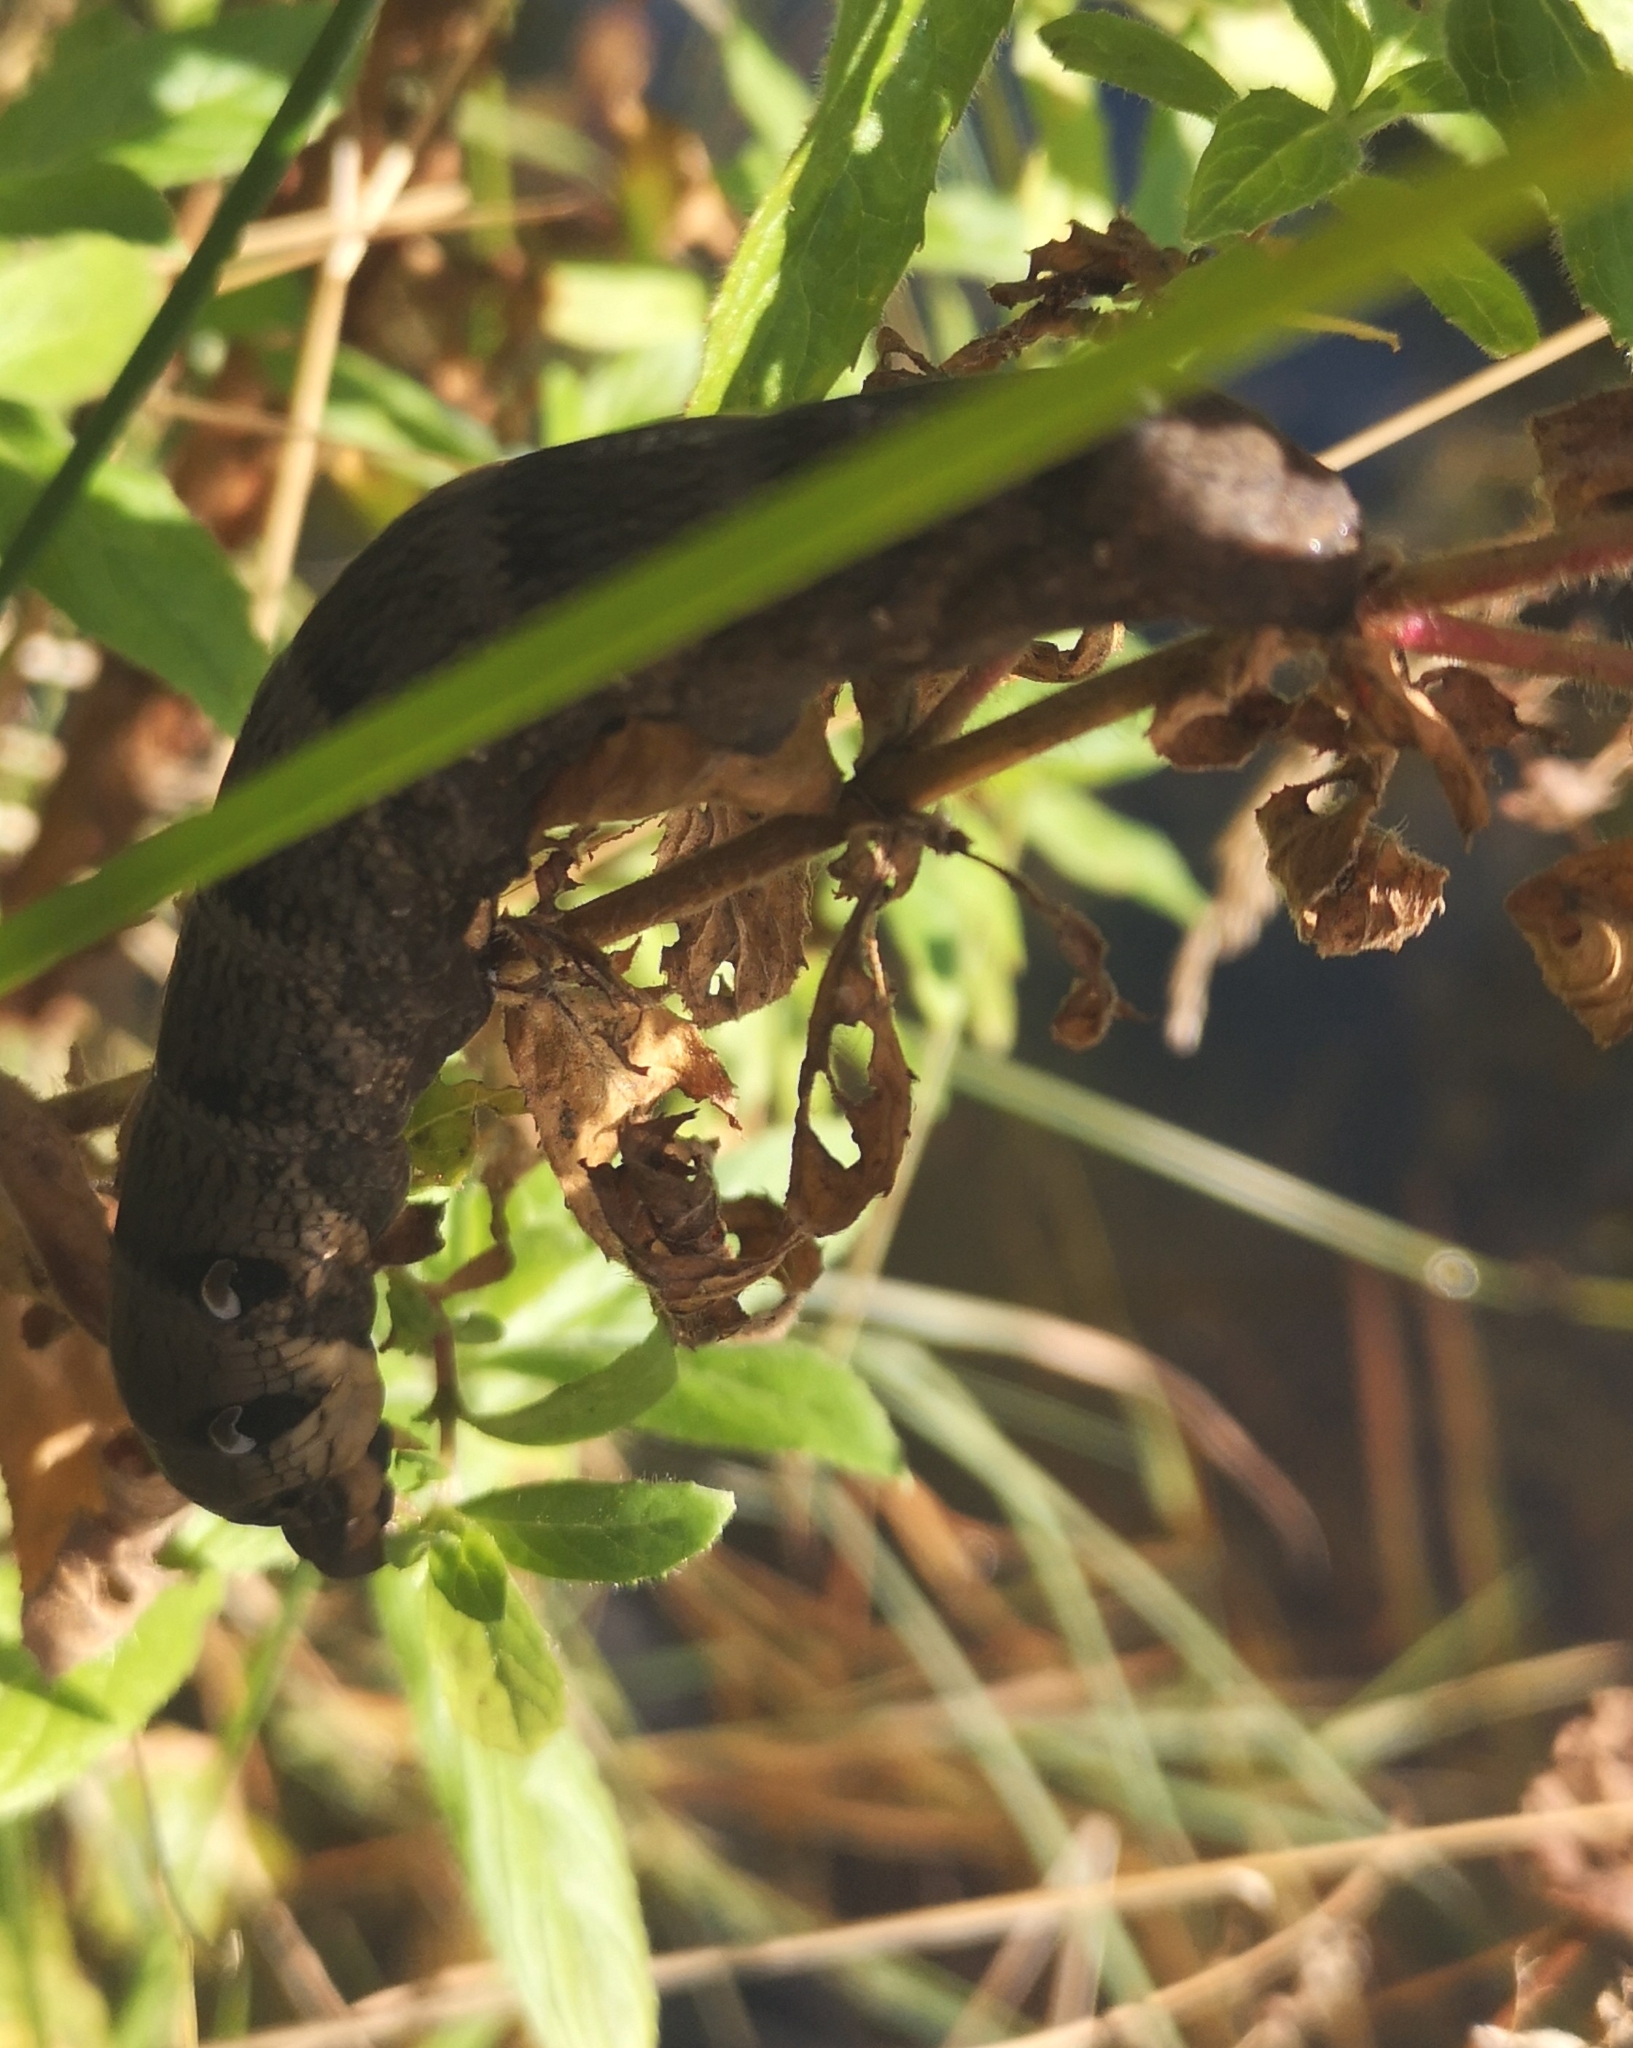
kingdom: Animalia
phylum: Arthropoda
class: Insecta
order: Lepidoptera
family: Sphingidae
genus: Deilephila
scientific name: Deilephila elpenor
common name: Elephant hawk-moth
